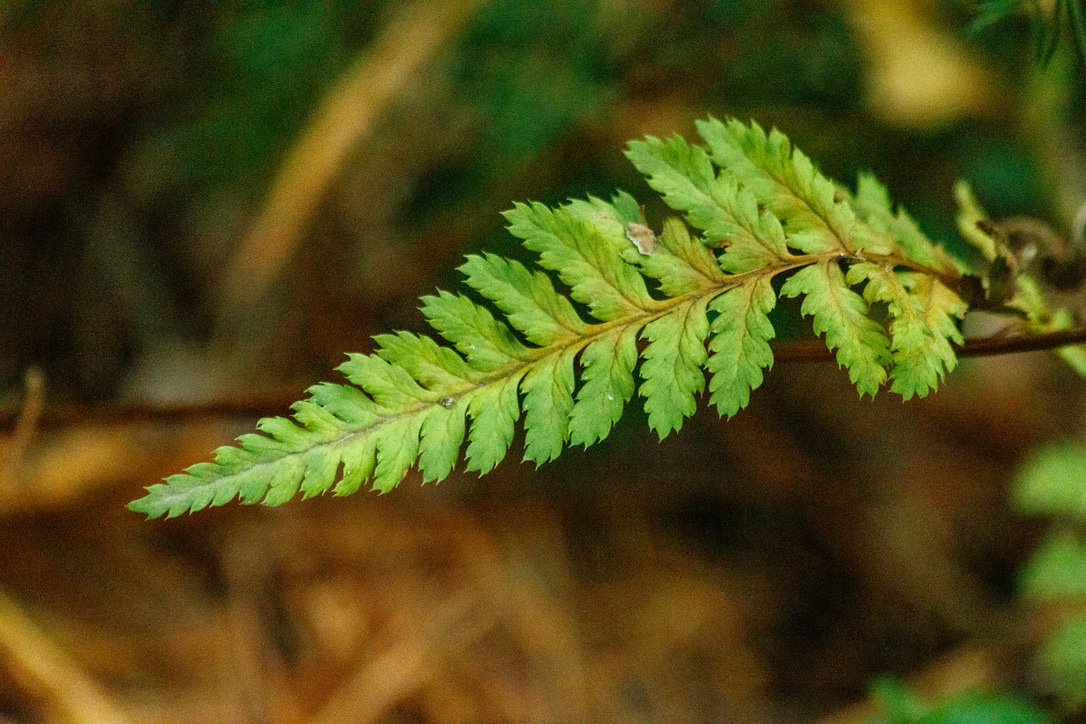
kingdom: Plantae
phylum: Tracheophyta
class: Polypodiopsida
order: Polypodiales
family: Dryopteridaceae
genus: Dryopteris
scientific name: Dryopteris carthusiana
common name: Narrow buckler-fern
